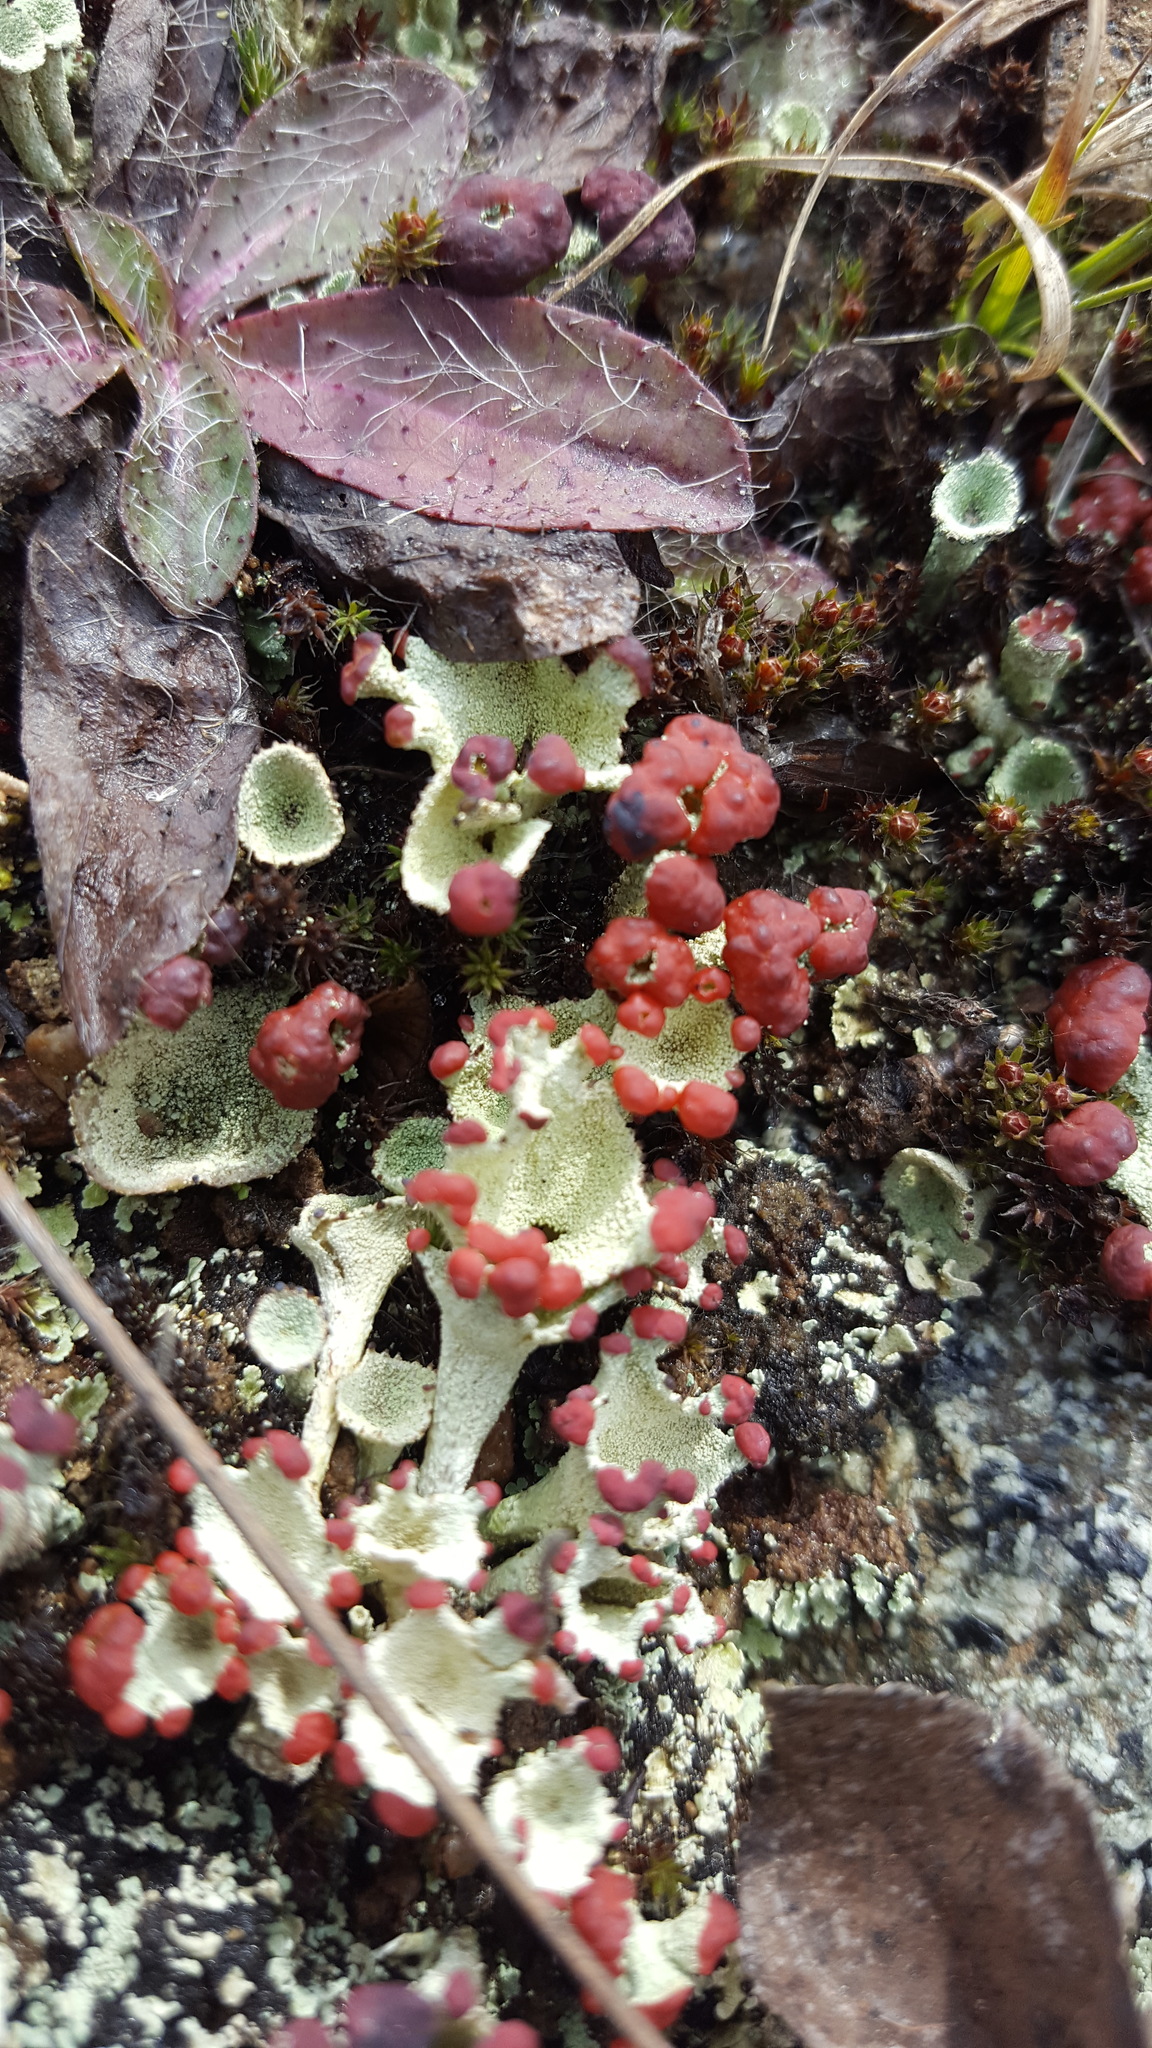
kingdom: Fungi
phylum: Ascomycota
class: Lecanoromycetes
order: Lecanorales
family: Cladoniaceae
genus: Cladonia
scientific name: Cladonia pleurota
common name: Red-fruited pixie cup
